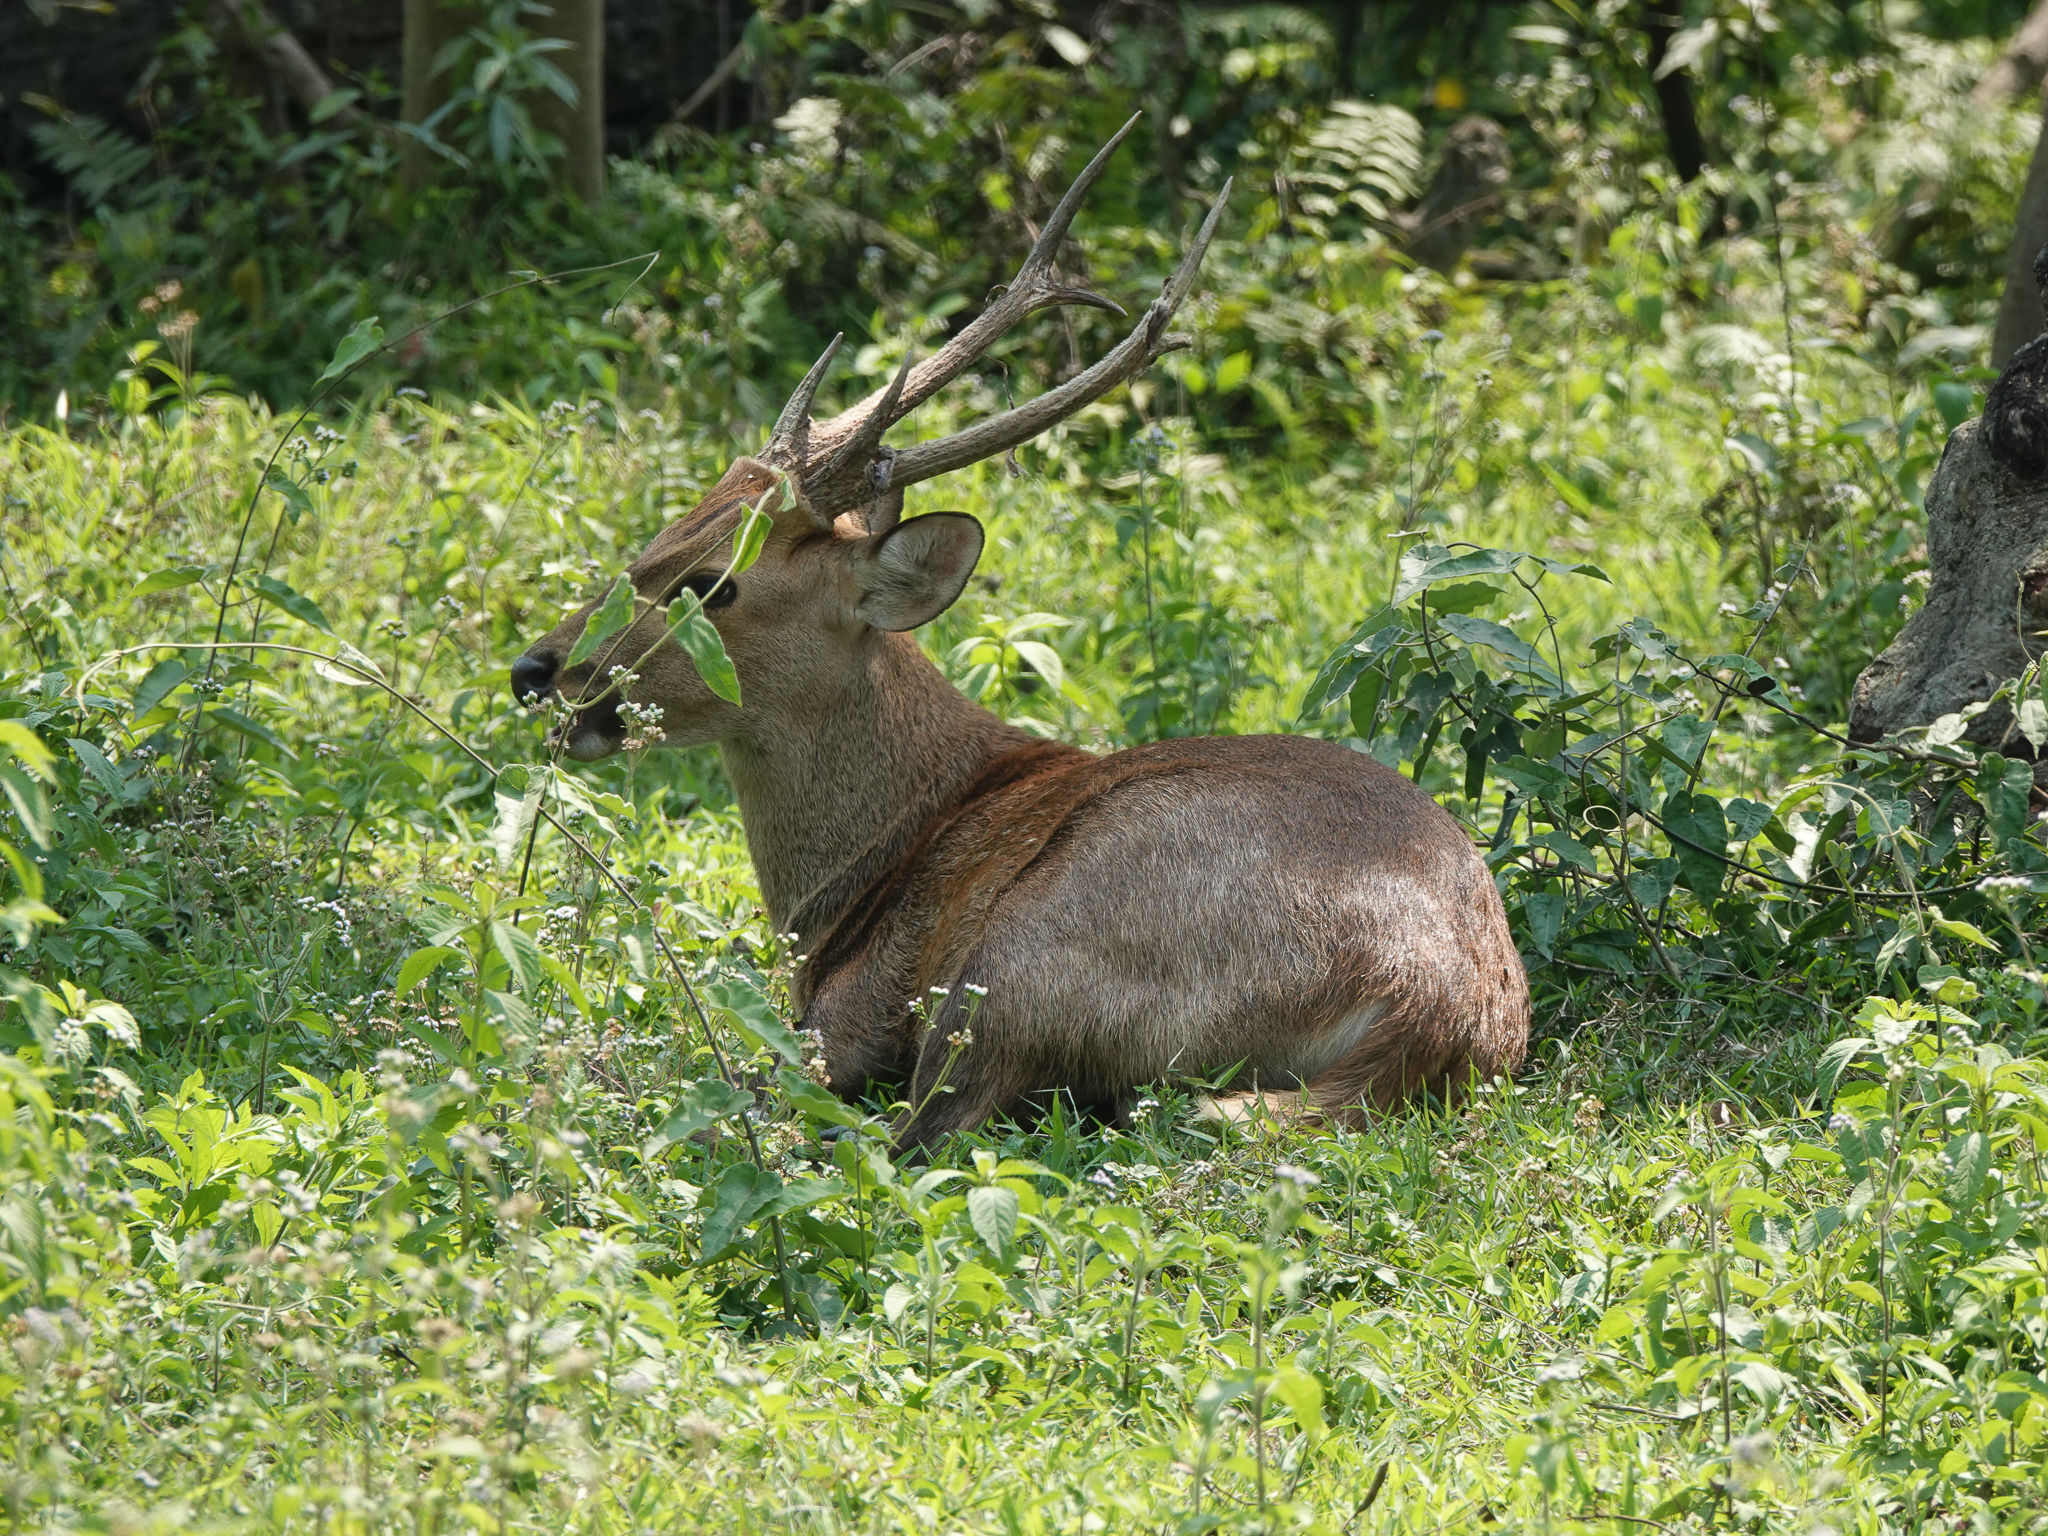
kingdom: Animalia
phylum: Chordata
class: Mammalia
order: Artiodactyla
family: Cervidae
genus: Axis
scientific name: Axis porcinus
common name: Hog deer
